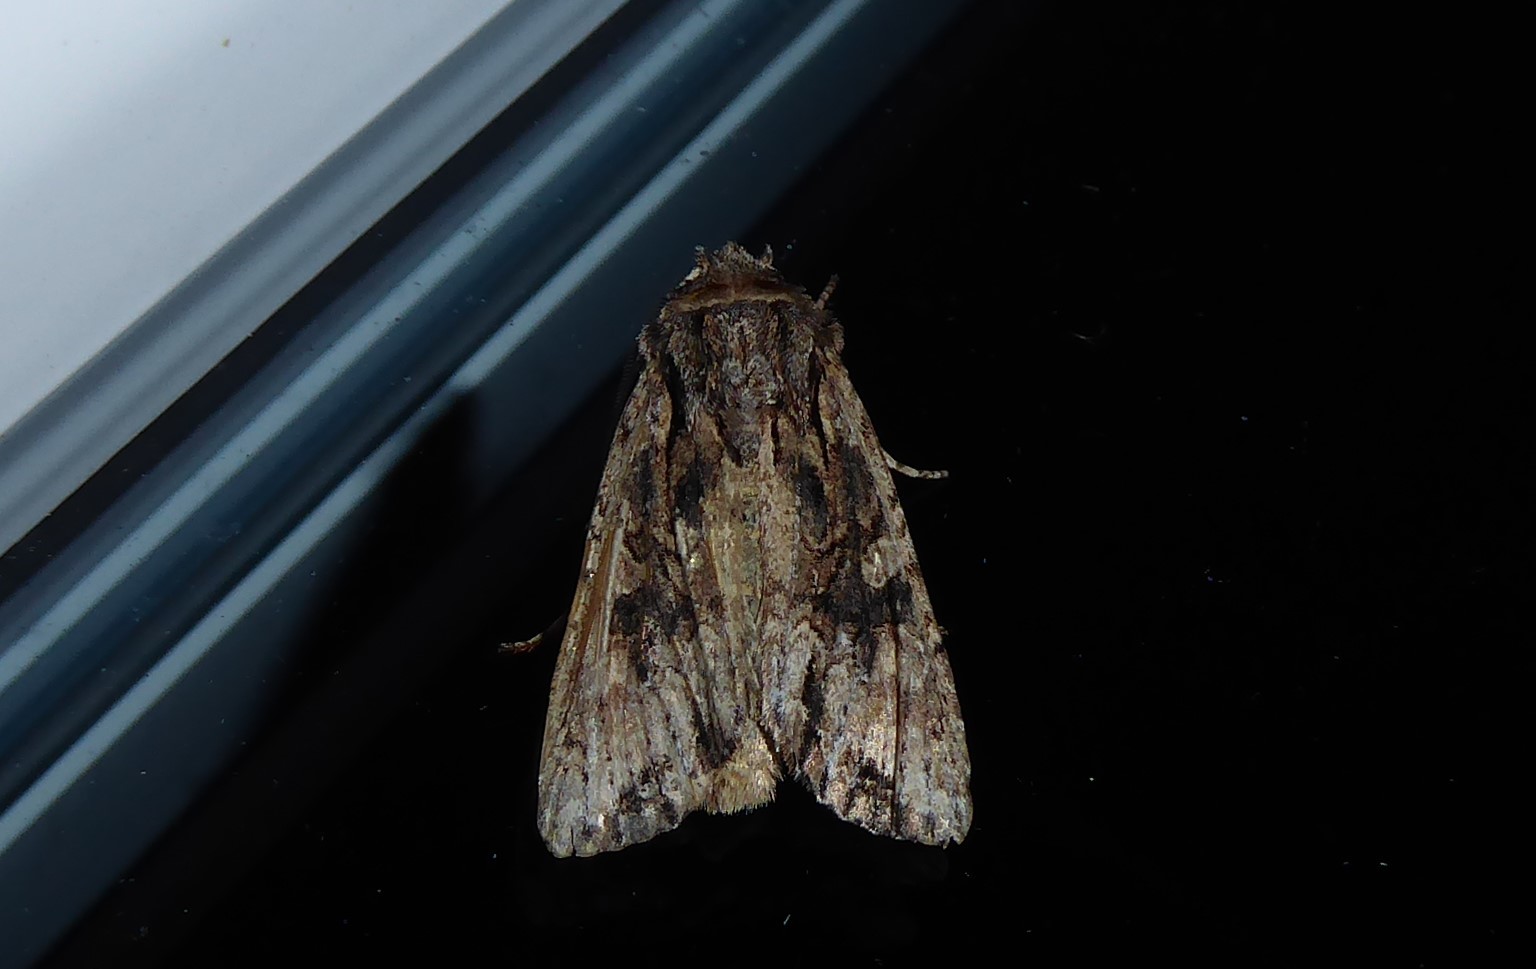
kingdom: Animalia
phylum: Arthropoda
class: Insecta
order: Lepidoptera
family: Noctuidae
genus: Ichneutica
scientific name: Ichneutica mutans
